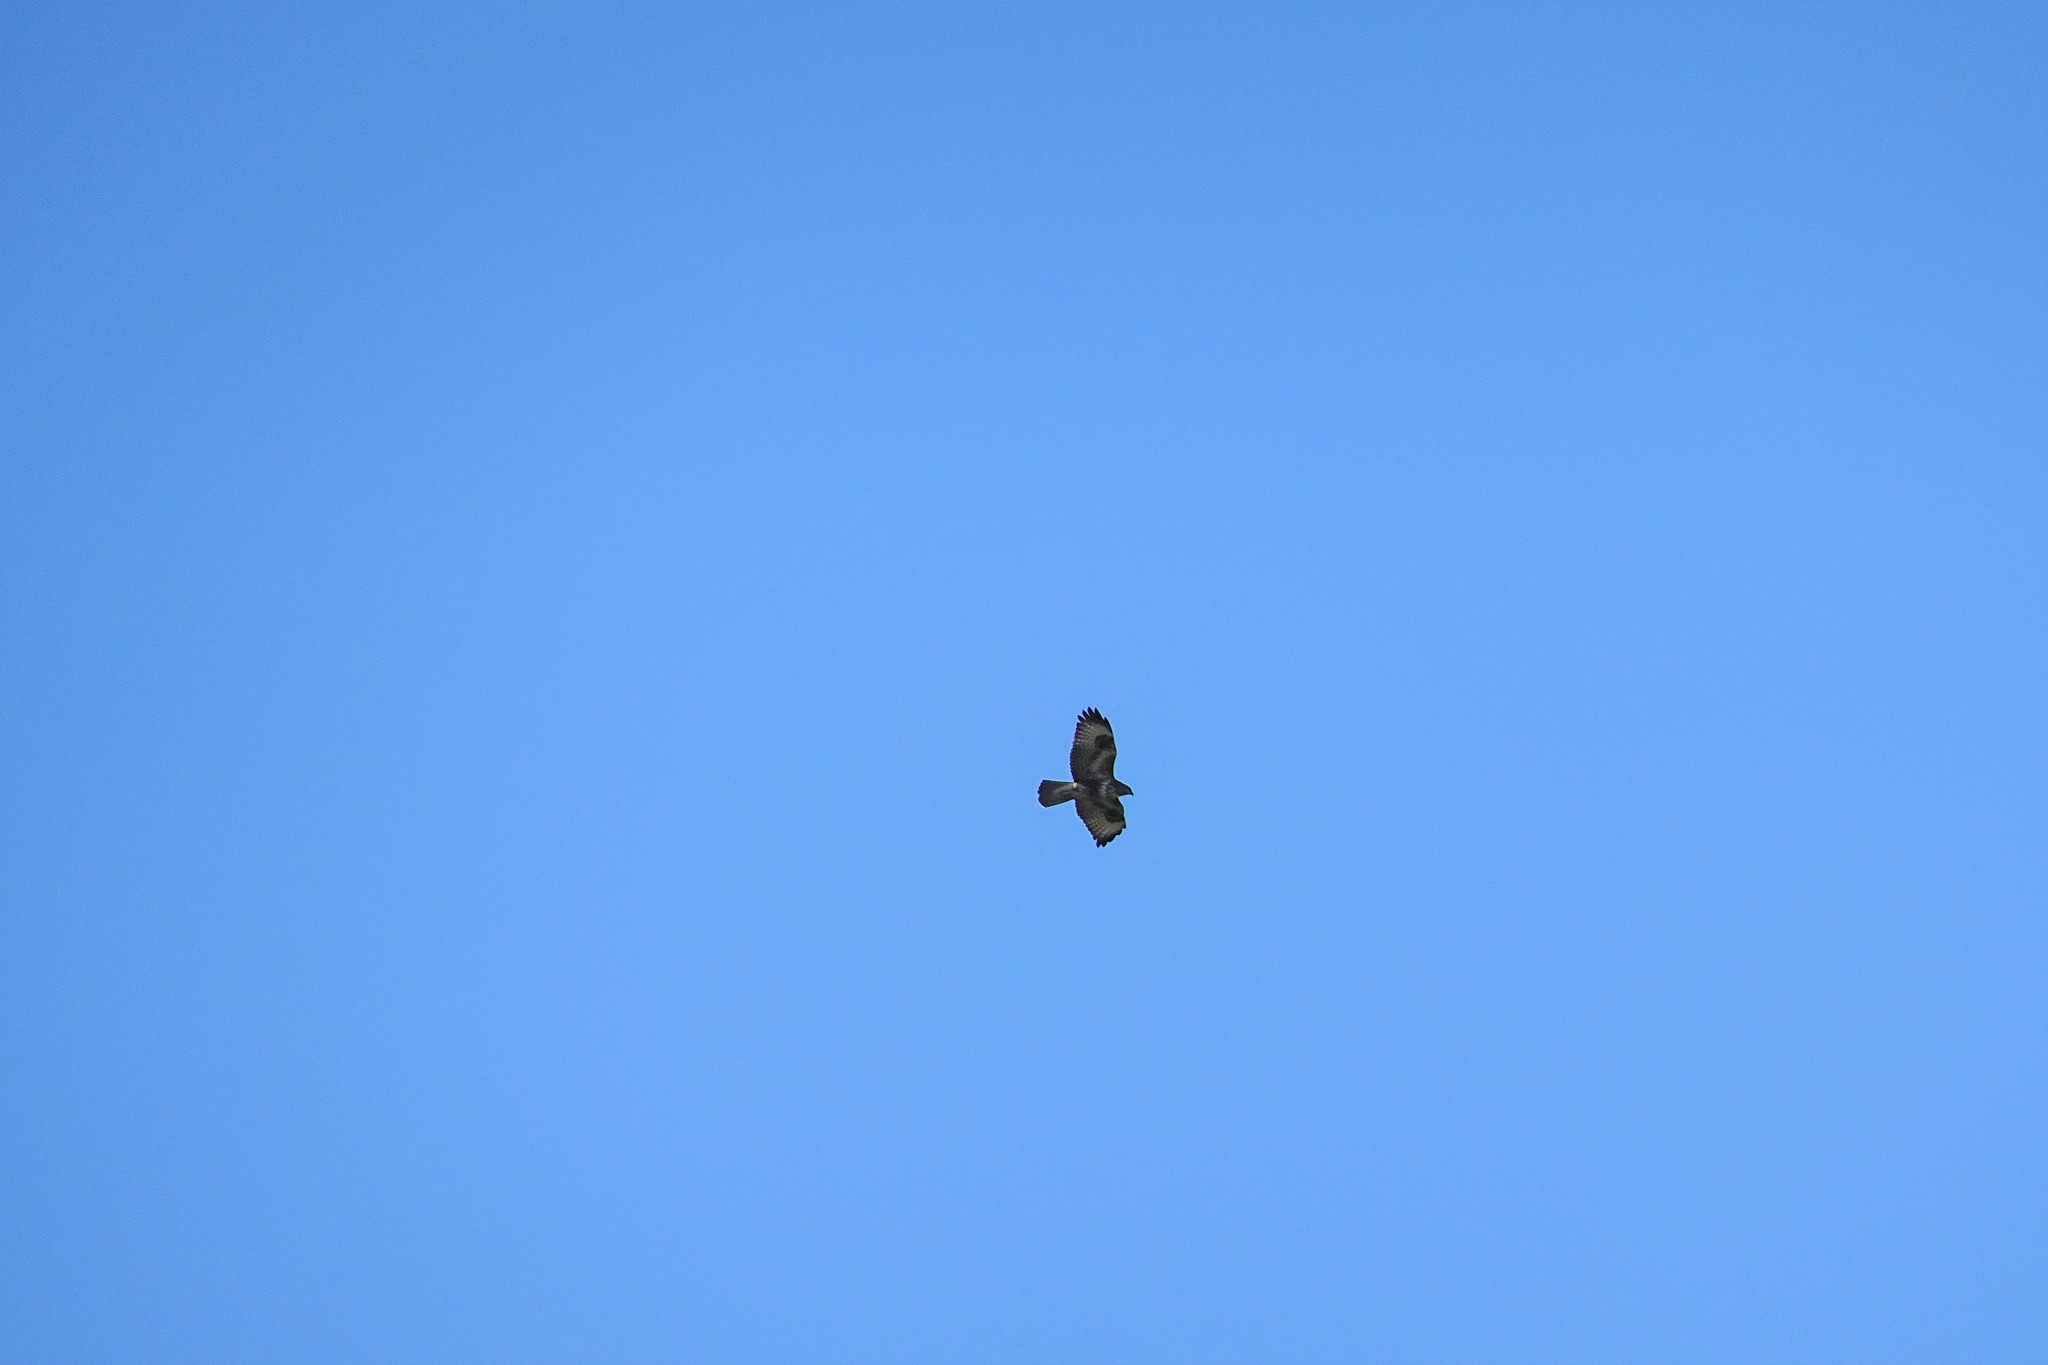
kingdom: Animalia
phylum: Chordata
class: Aves
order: Accipitriformes
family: Accipitridae
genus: Buteo
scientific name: Buteo buteo
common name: Common buzzard
